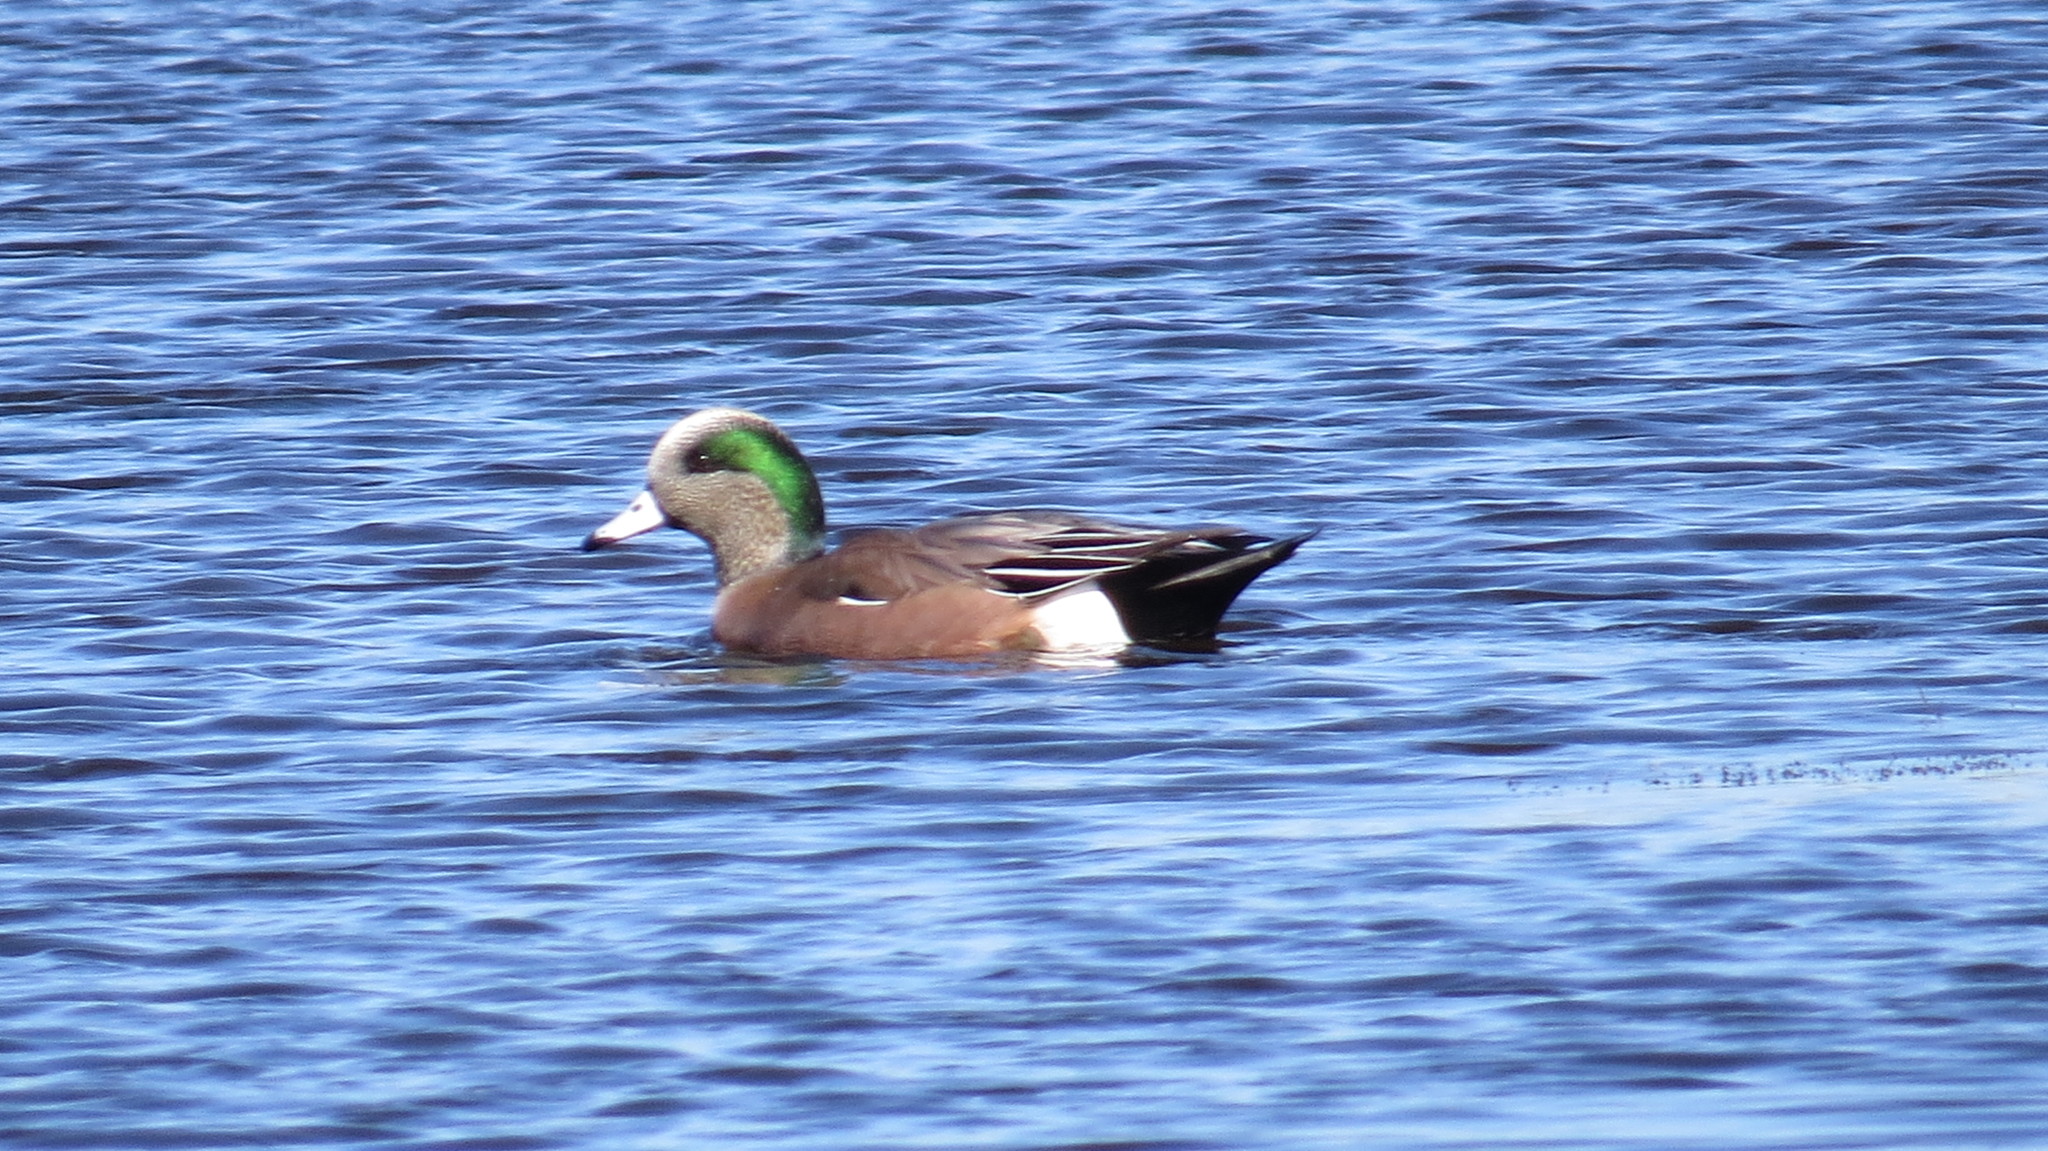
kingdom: Animalia
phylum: Chordata
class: Aves
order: Anseriformes
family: Anatidae
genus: Mareca
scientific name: Mareca americana
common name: American wigeon
